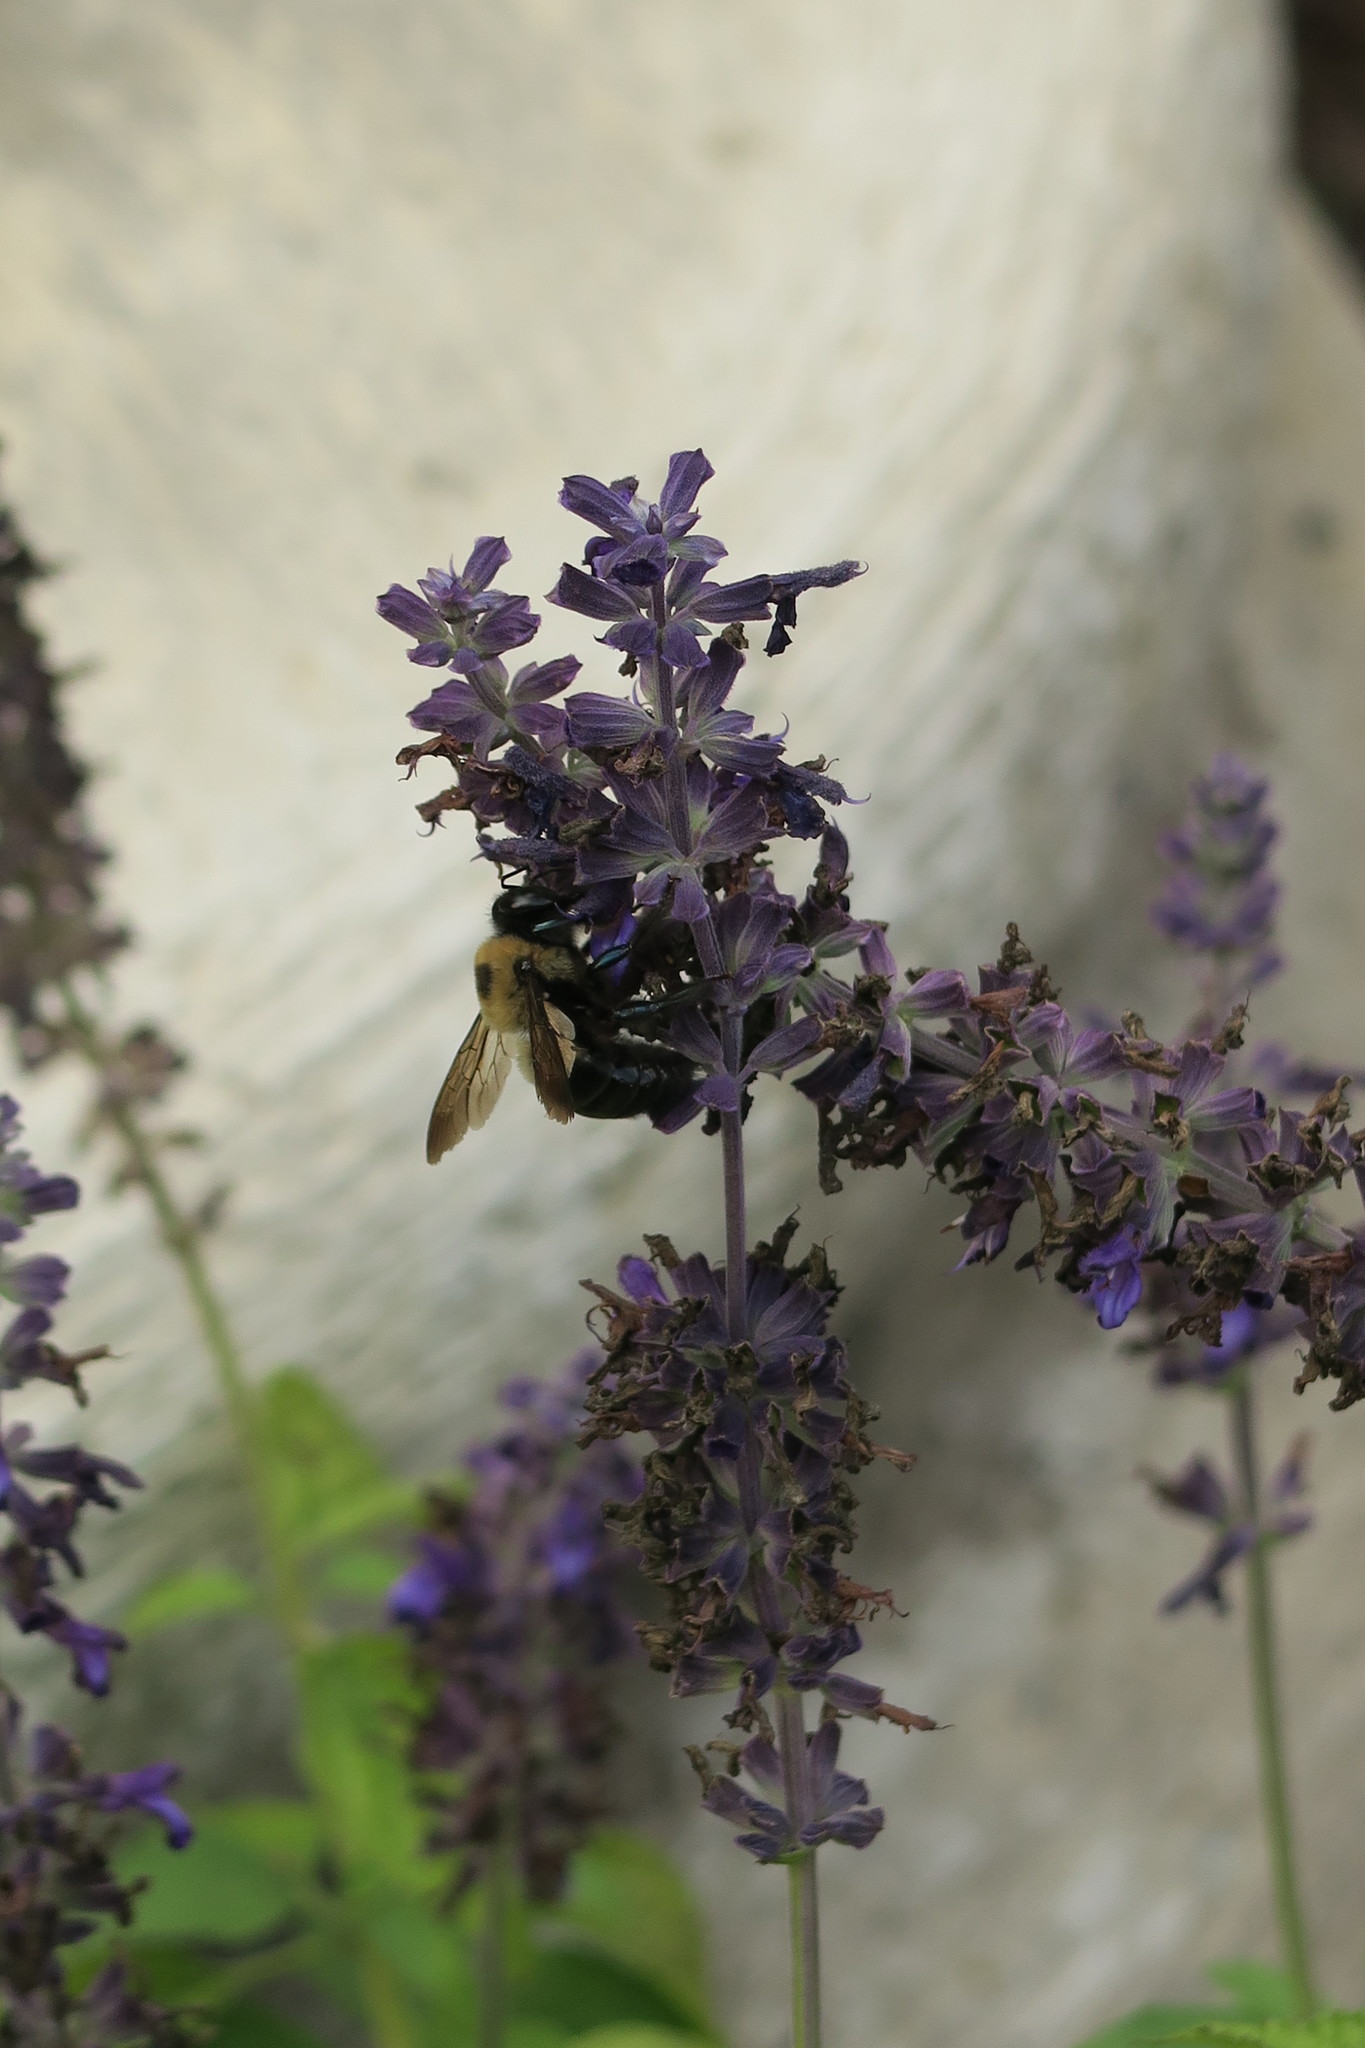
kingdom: Animalia
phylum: Arthropoda
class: Insecta
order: Hymenoptera
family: Apidae
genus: Xylocopa
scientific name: Xylocopa virginica
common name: Carpenter bee
